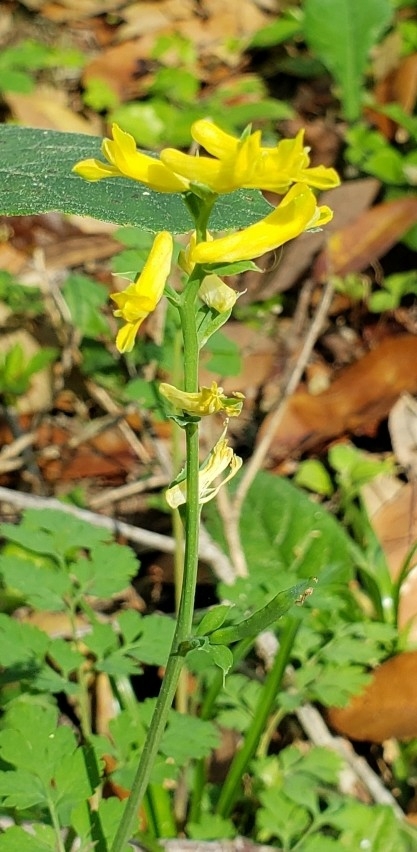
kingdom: Plantae
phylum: Tracheophyta
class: Magnoliopsida
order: Ranunculales
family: Papaveraceae
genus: Corydalis
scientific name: Corydalis micrantha
